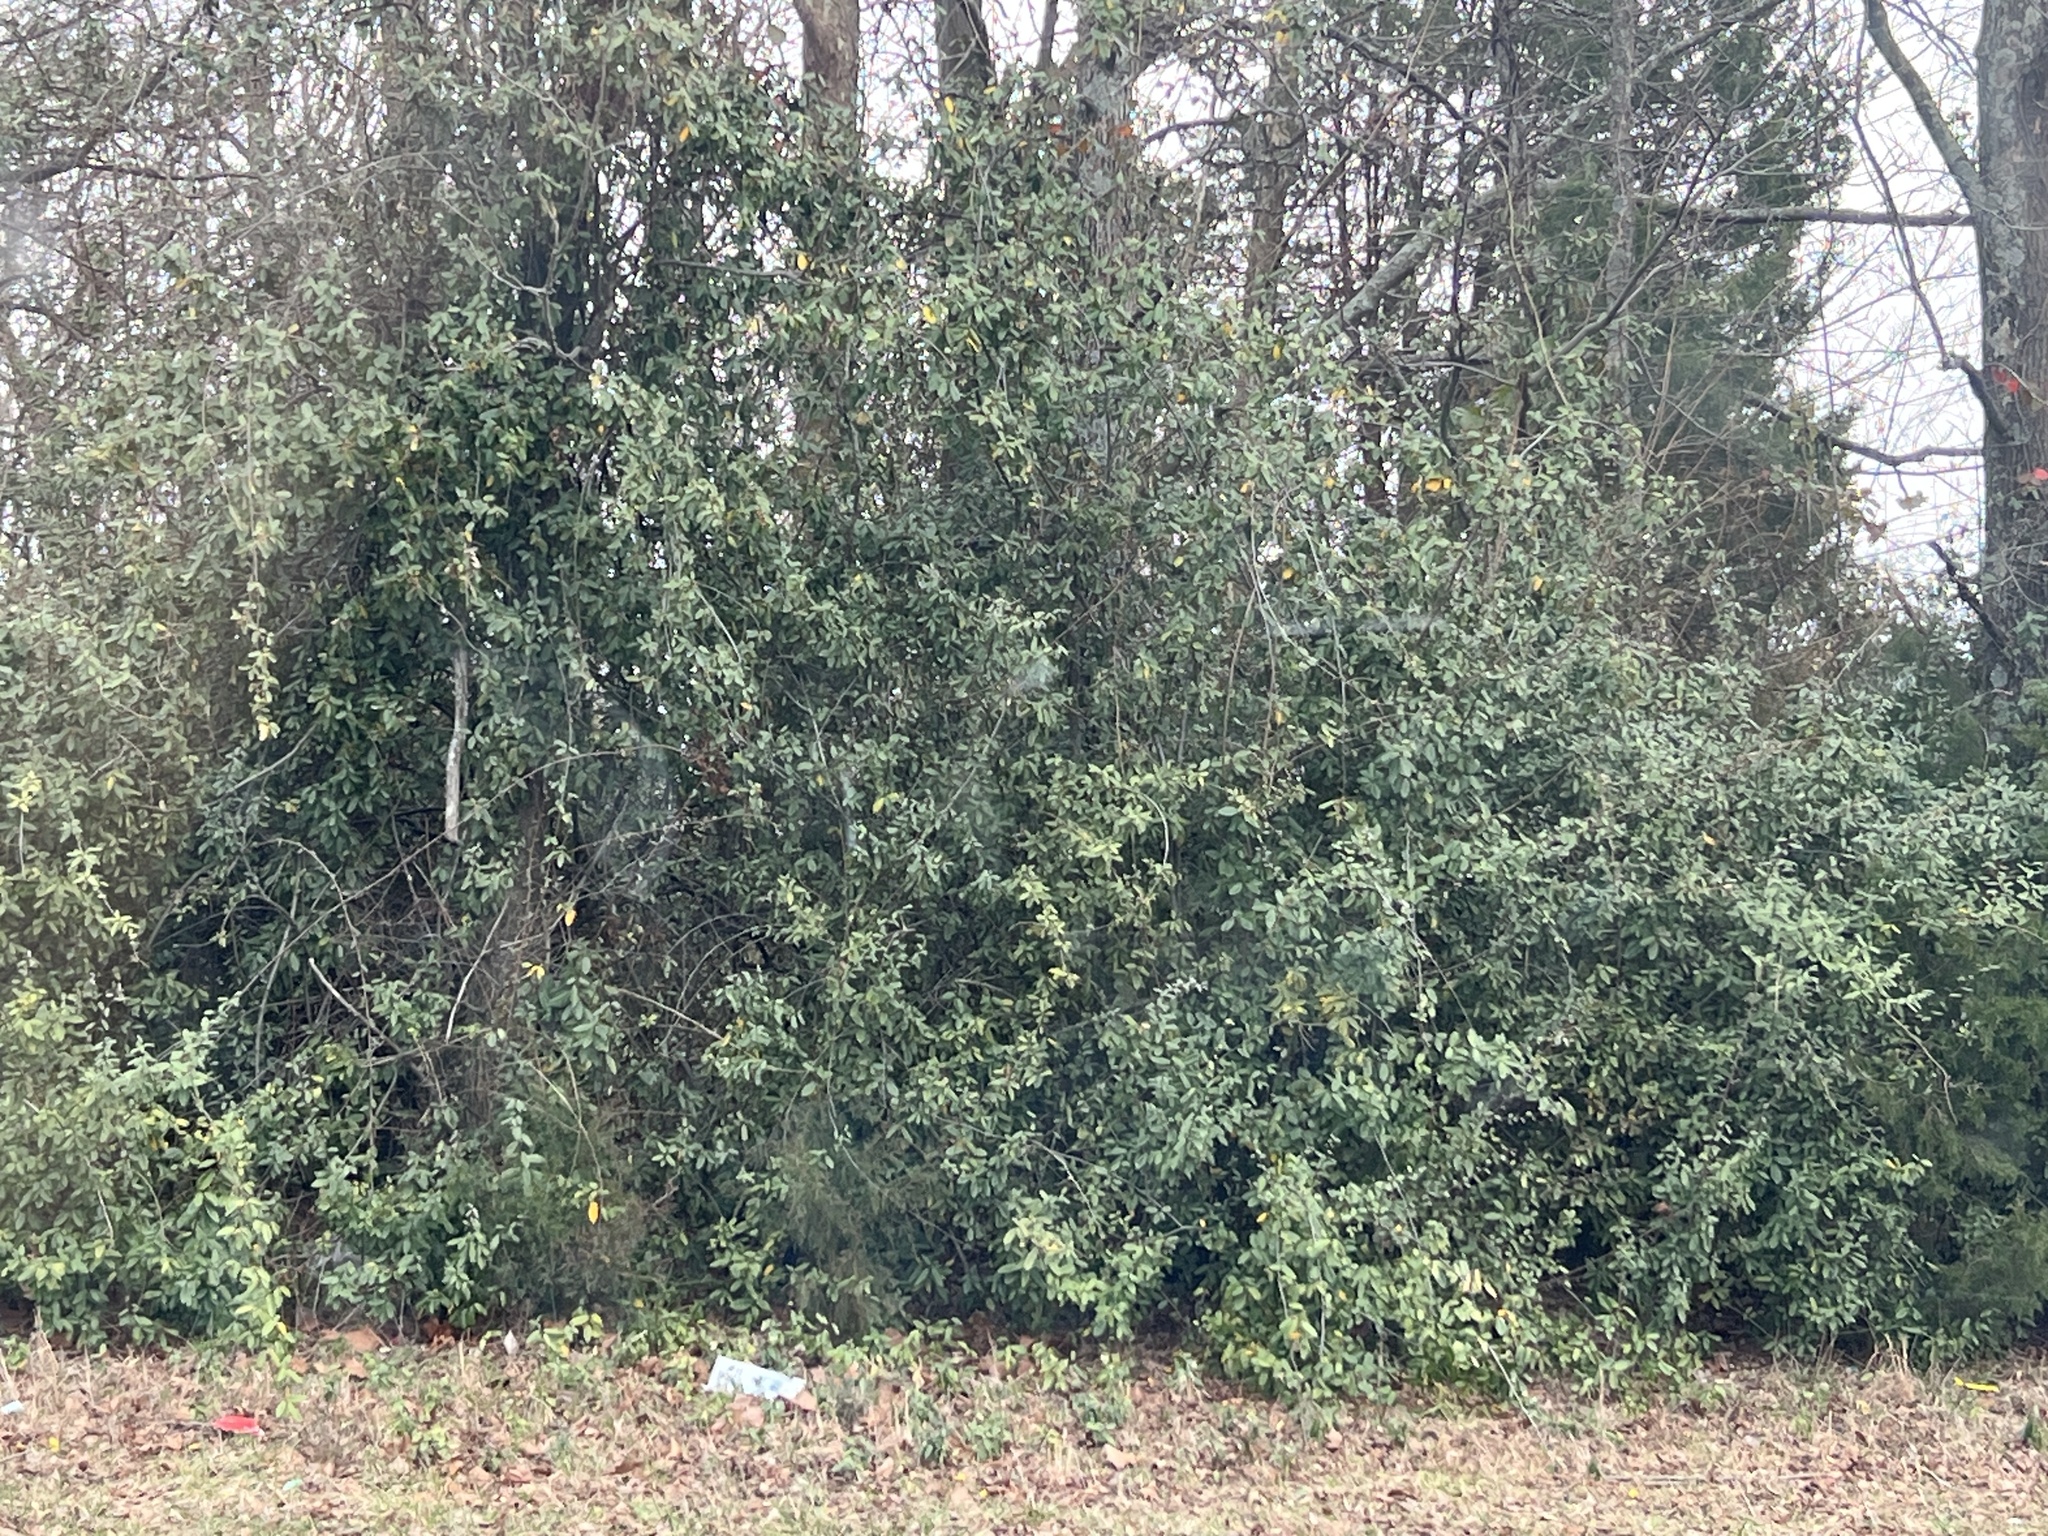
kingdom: Plantae
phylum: Tracheophyta
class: Magnoliopsida
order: Rosales
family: Elaeagnaceae
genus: Elaeagnus
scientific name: Elaeagnus pungens
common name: Spiny oleaster
